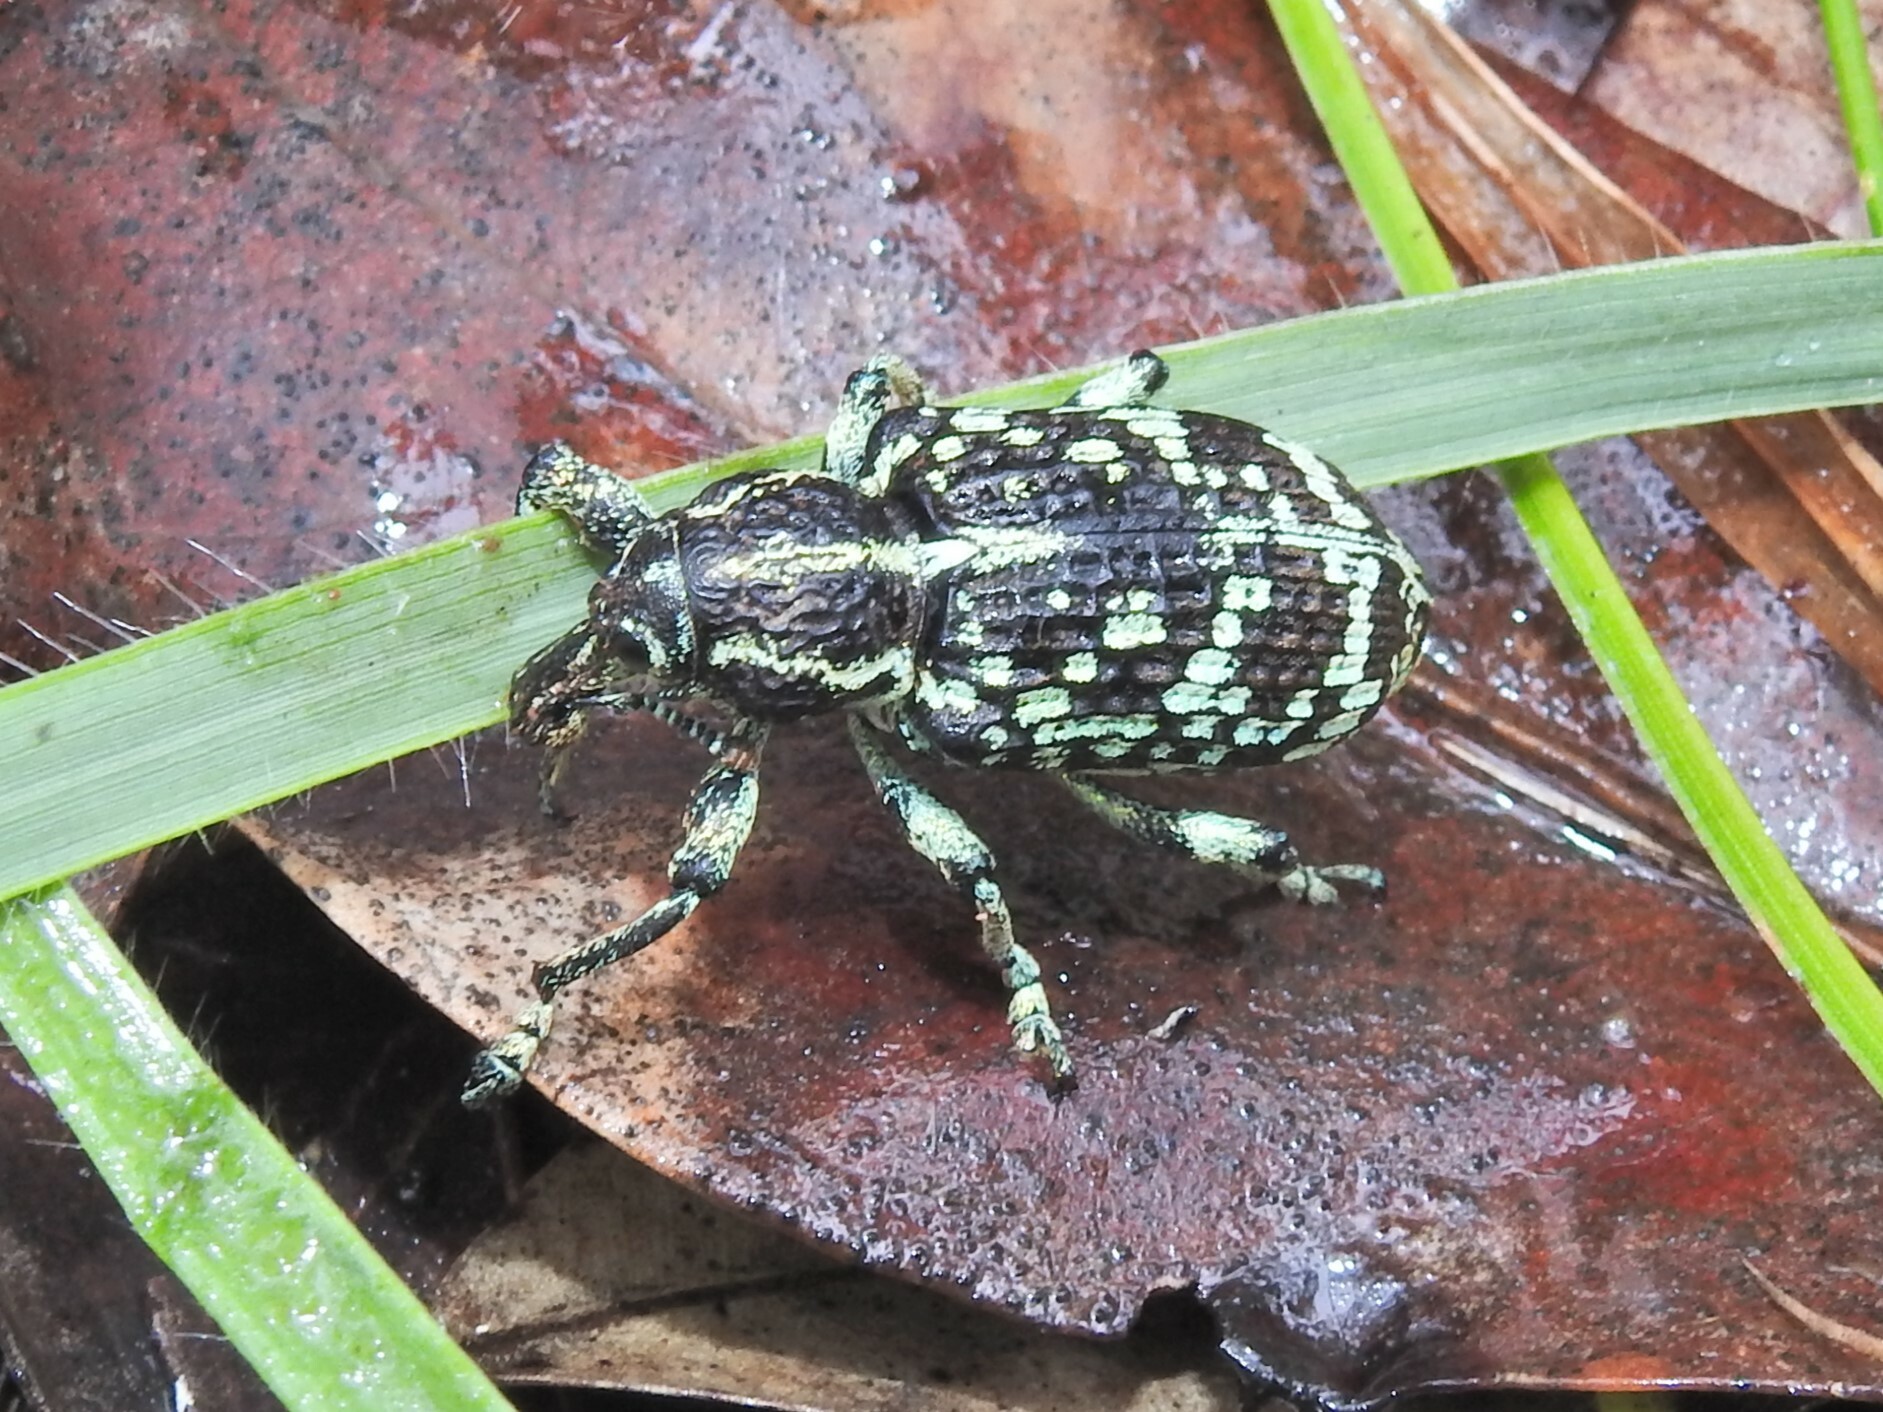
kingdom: Animalia
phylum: Arthropoda
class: Insecta
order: Coleoptera
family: Curculionidae
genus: Chrysolopus
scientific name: Chrysolopus spectabilis
